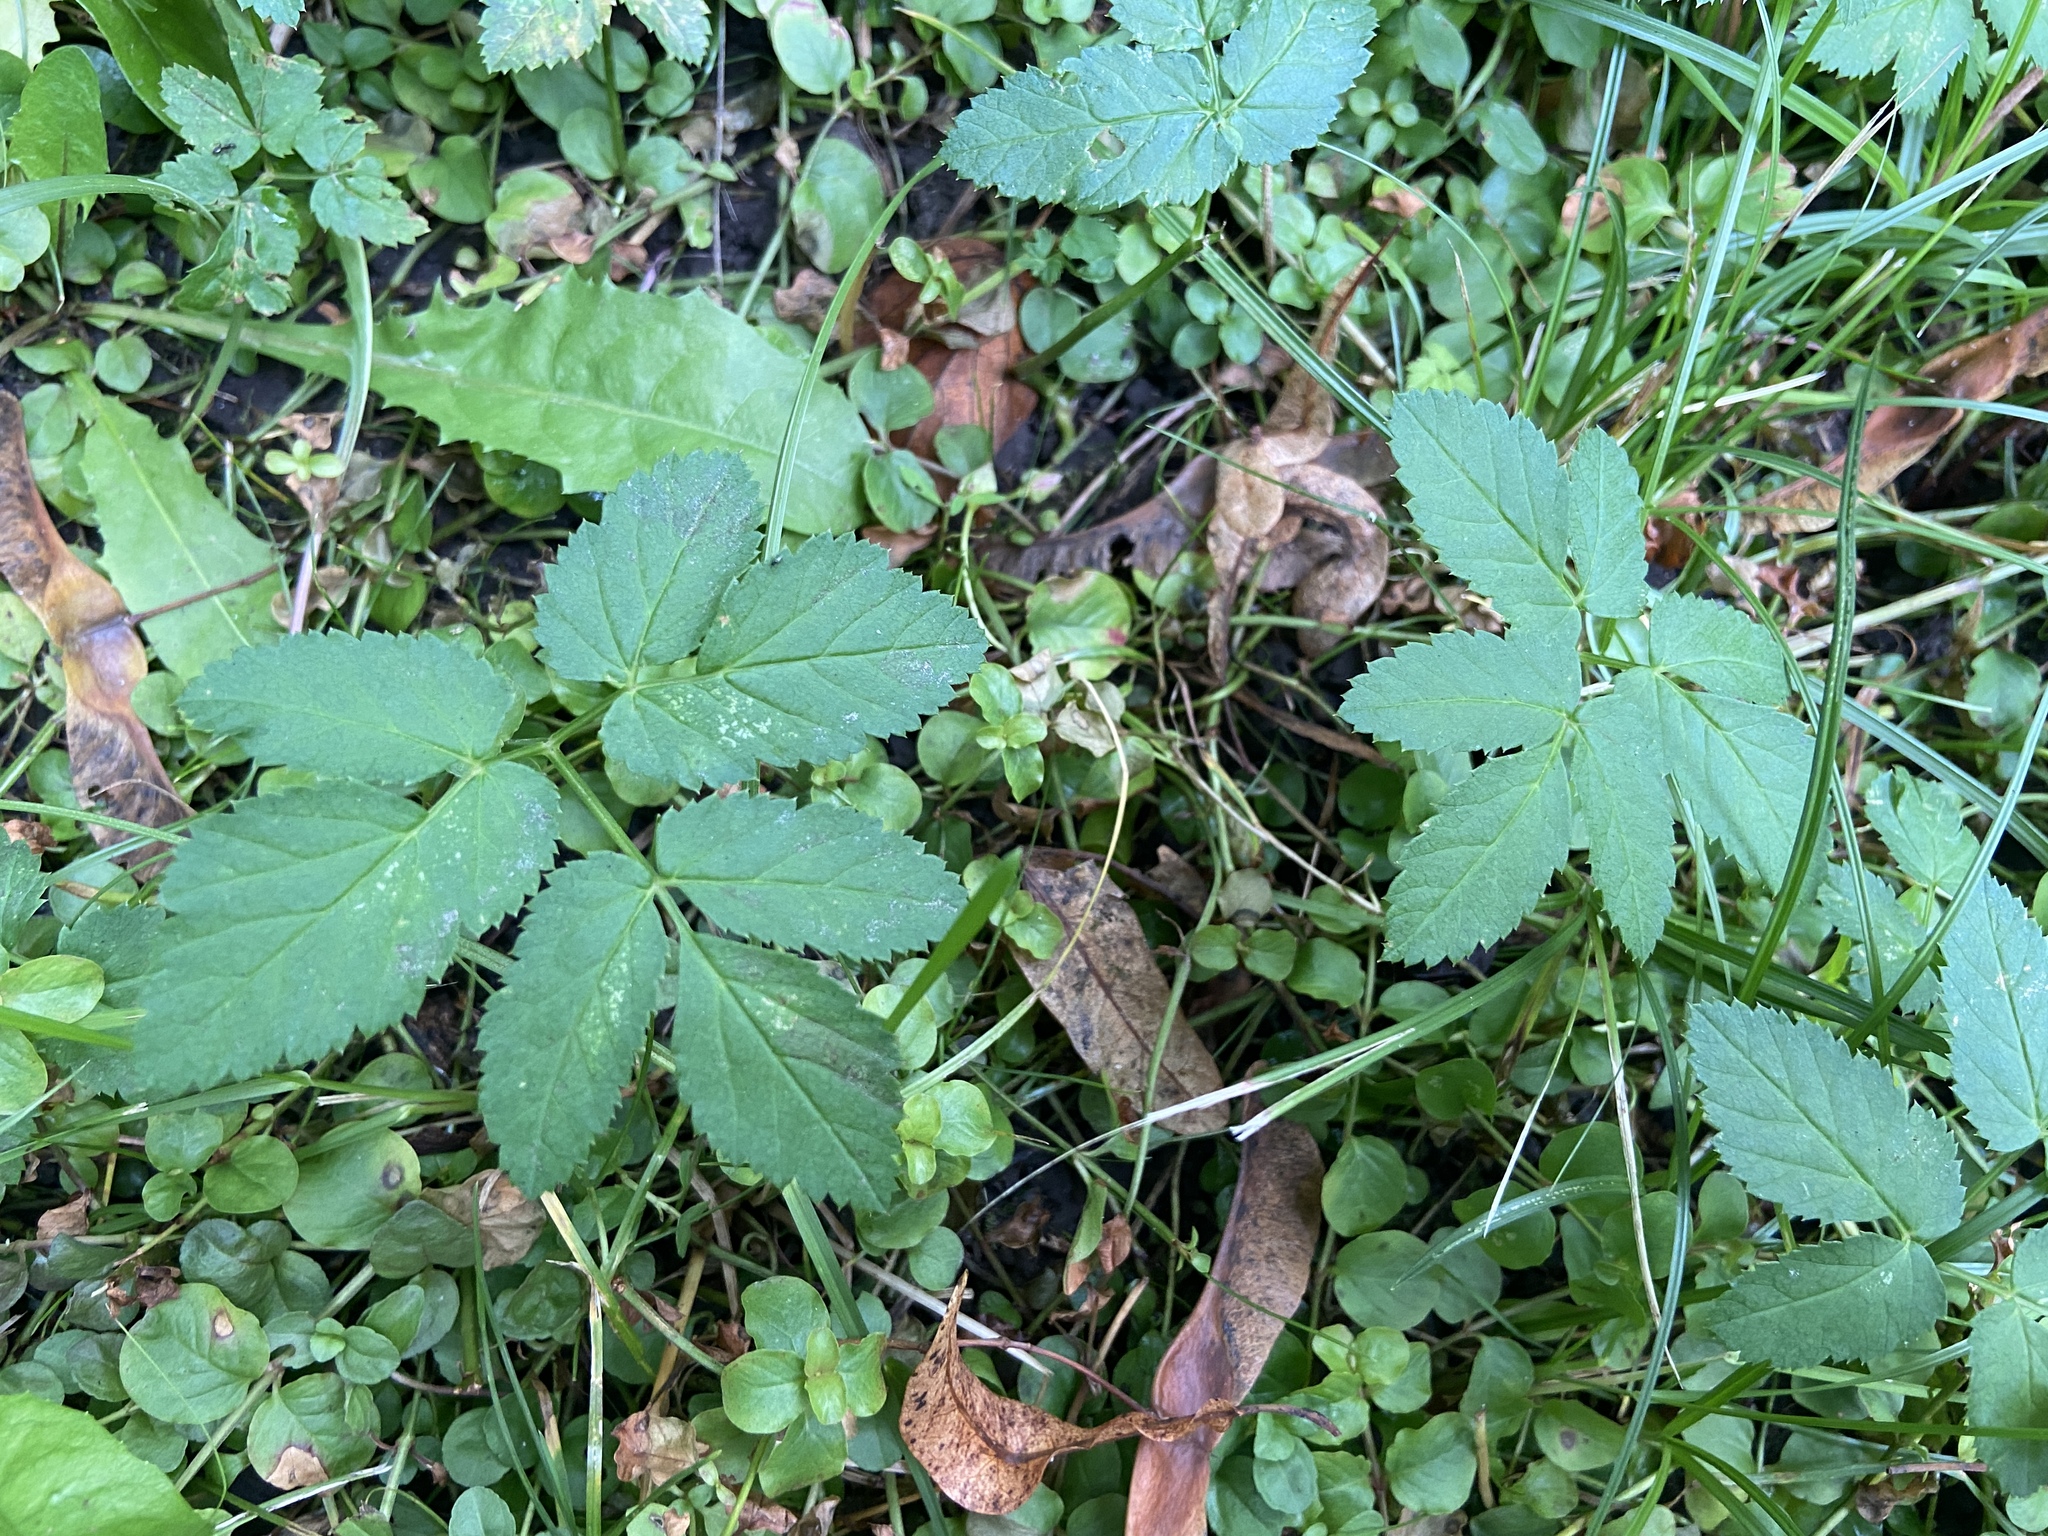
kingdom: Plantae
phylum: Tracheophyta
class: Magnoliopsida
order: Apiales
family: Apiaceae
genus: Aegopodium
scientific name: Aegopodium podagraria
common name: Ground-elder
